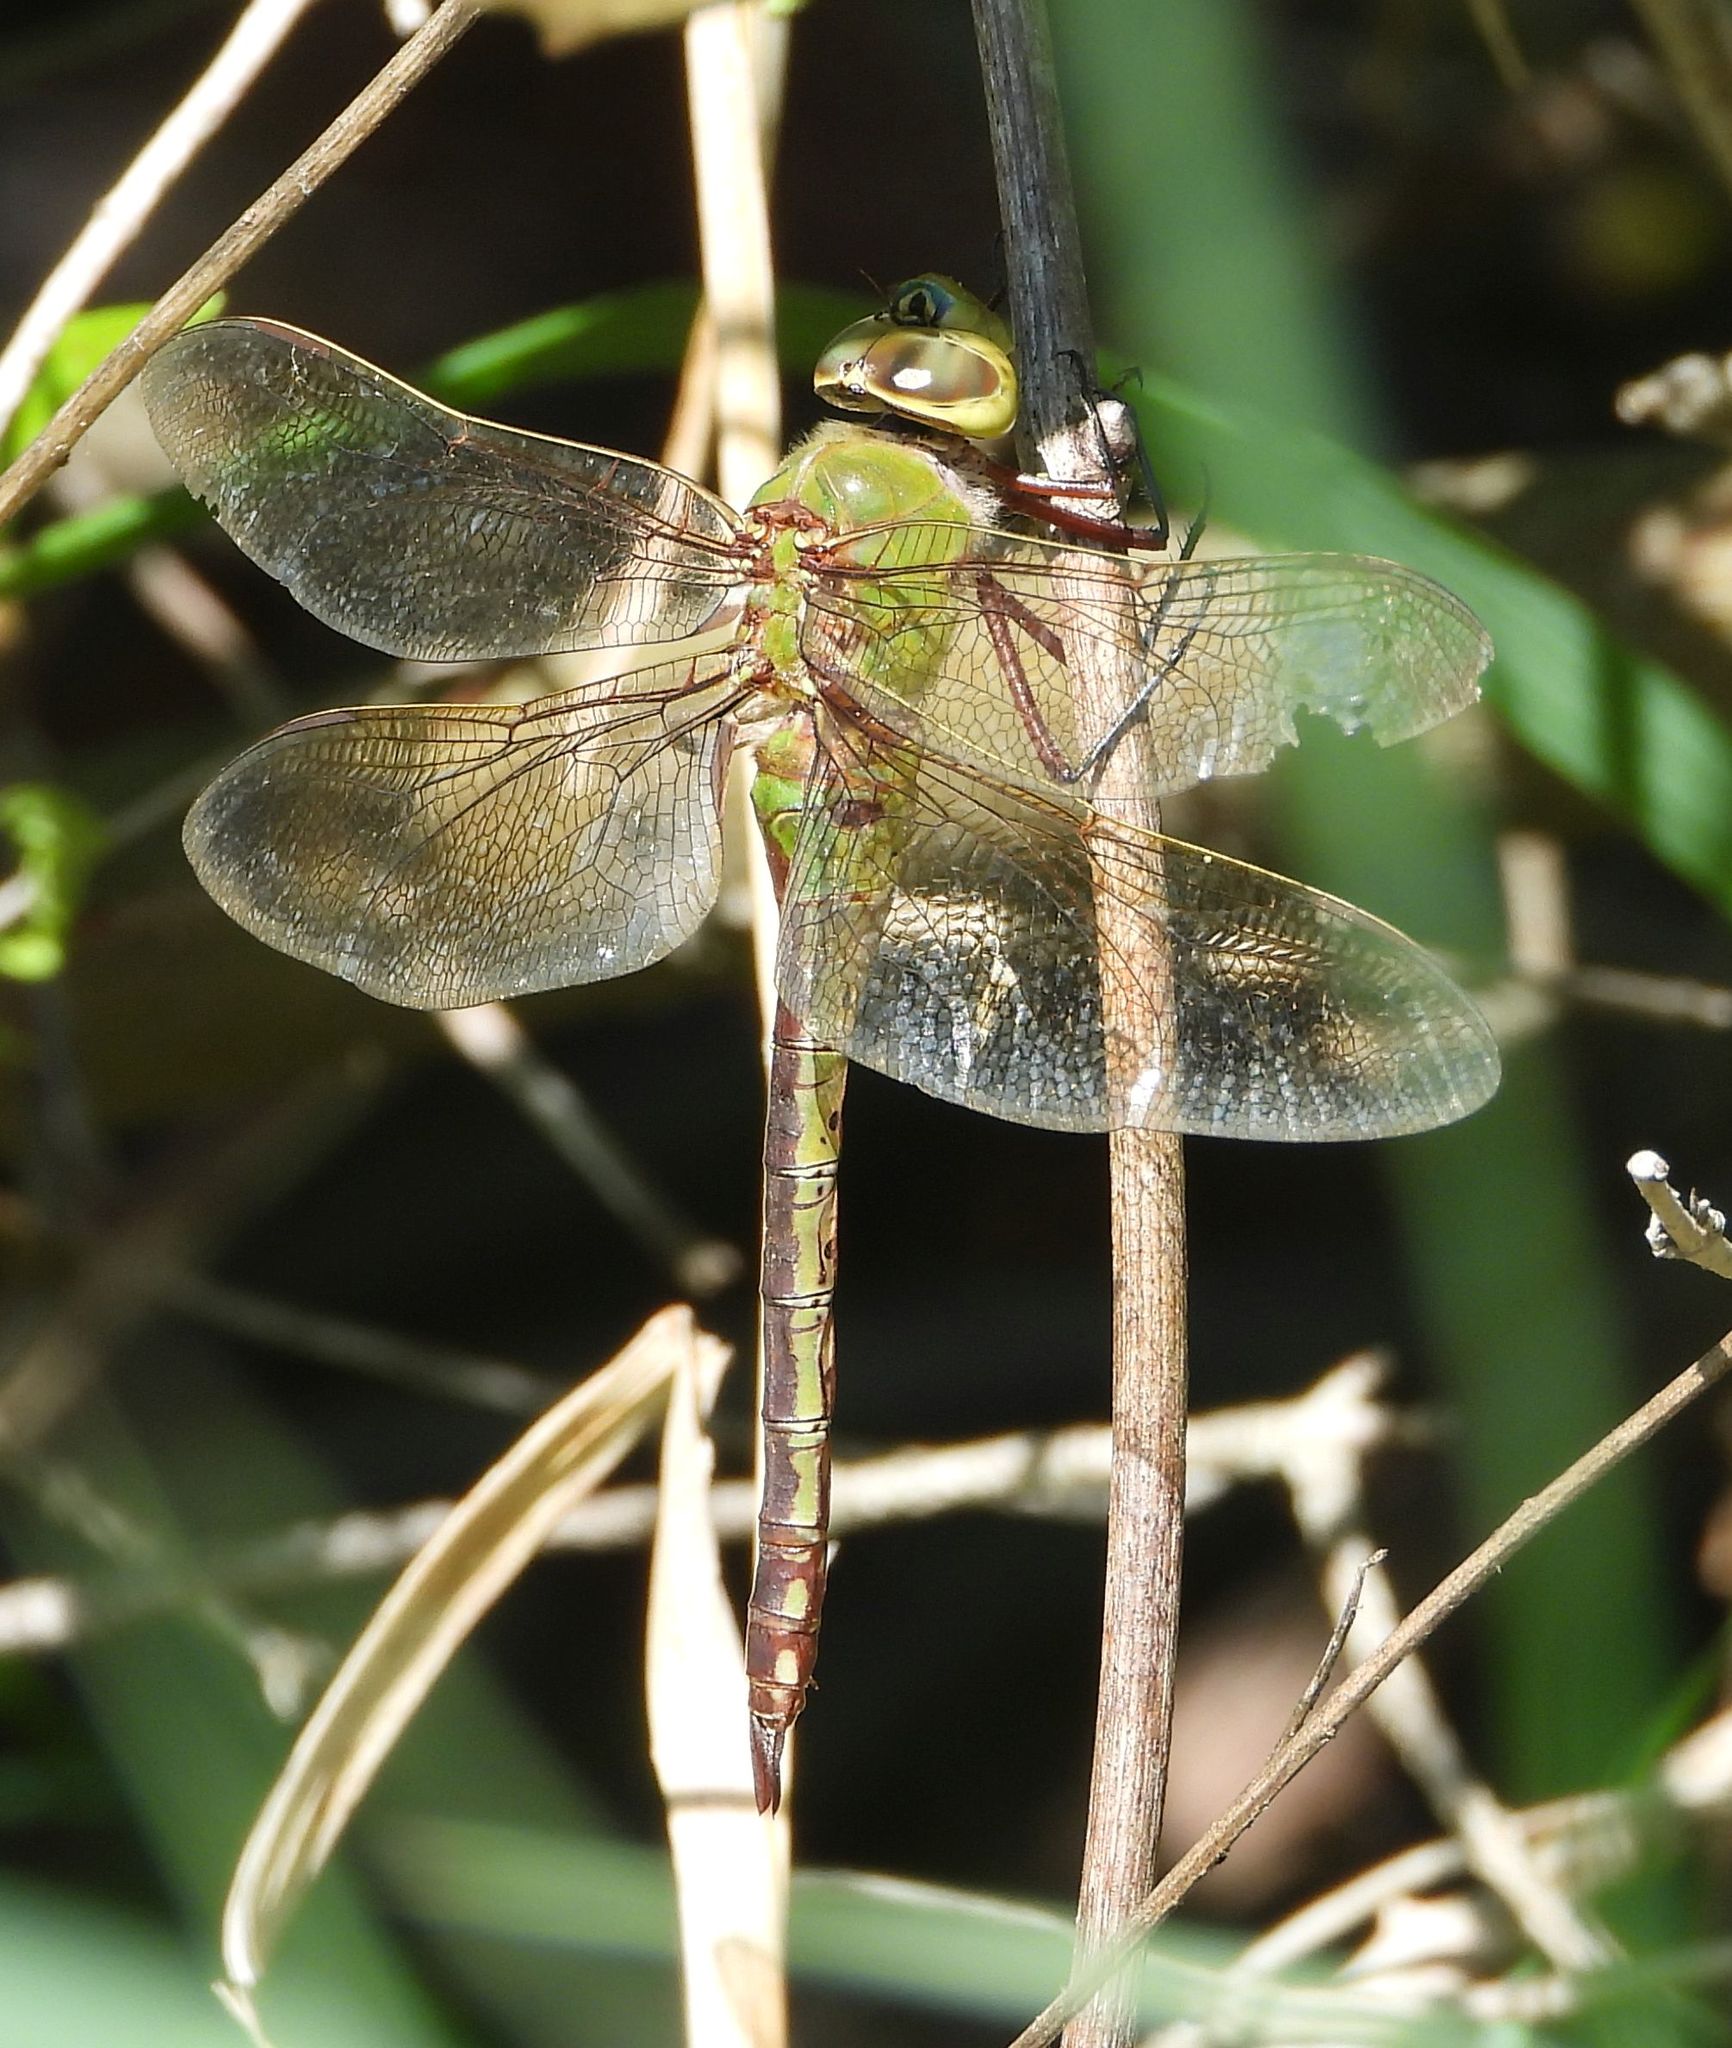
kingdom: Animalia
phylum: Arthropoda
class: Insecta
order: Odonata
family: Aeshnidae
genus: Anax
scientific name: Anax junius
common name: Common green darner
